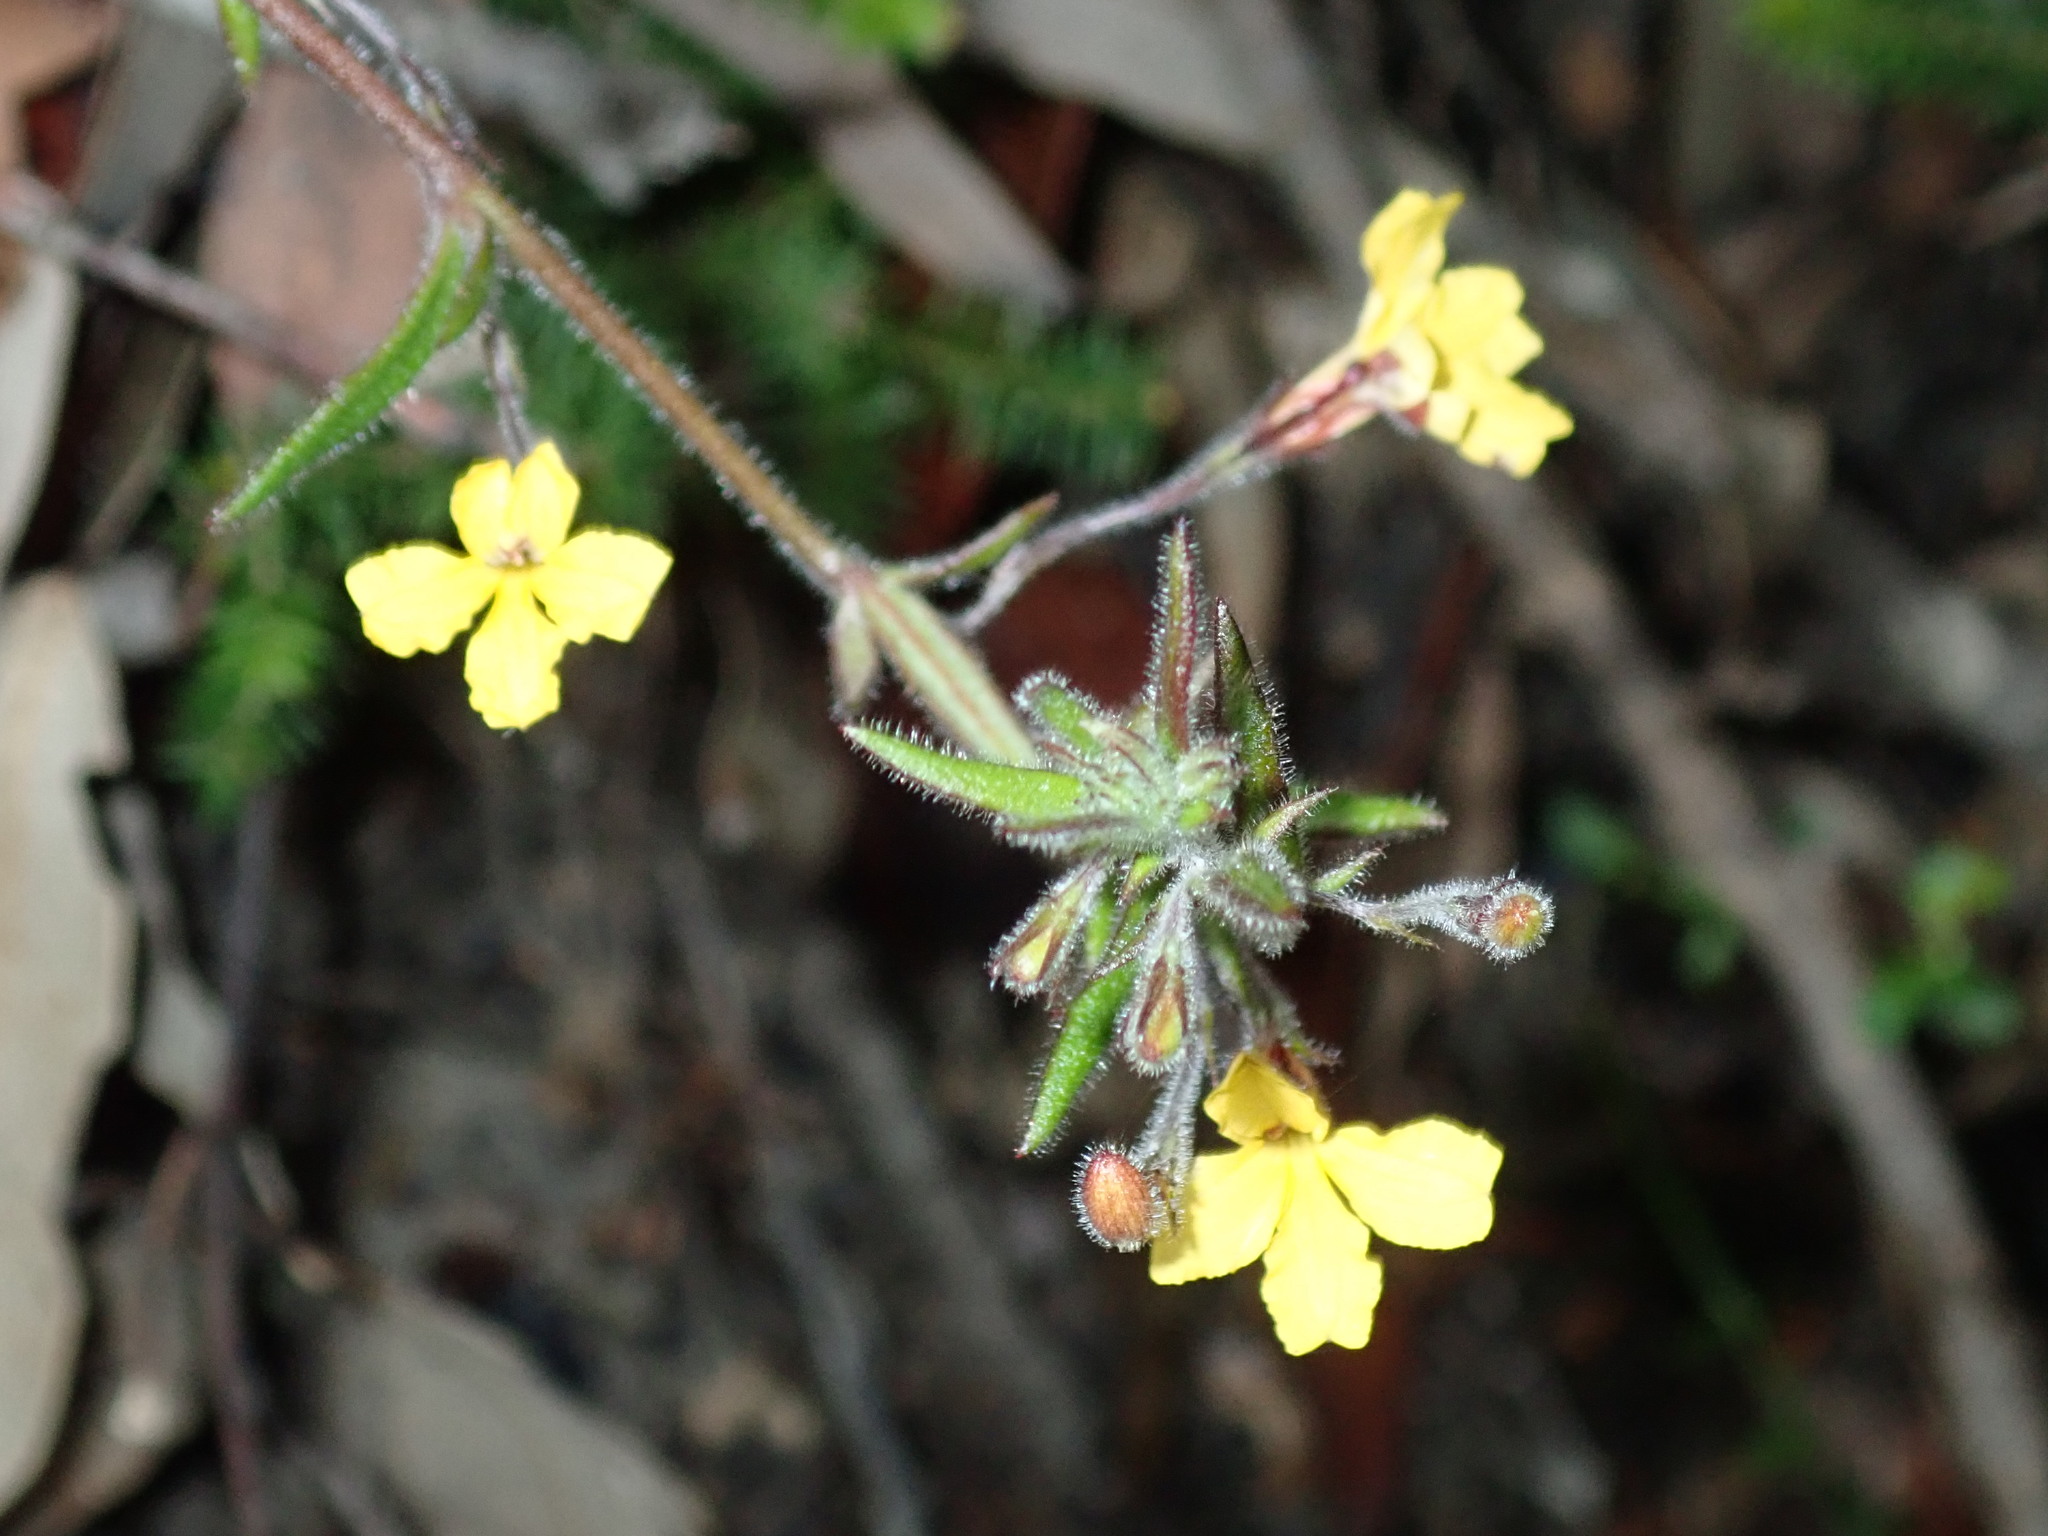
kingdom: Plantae
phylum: Tracheophyta
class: Magnoliopsida
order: Asterales
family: Goodeniaceae
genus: Goodenia
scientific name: Goodenia heterophylla
